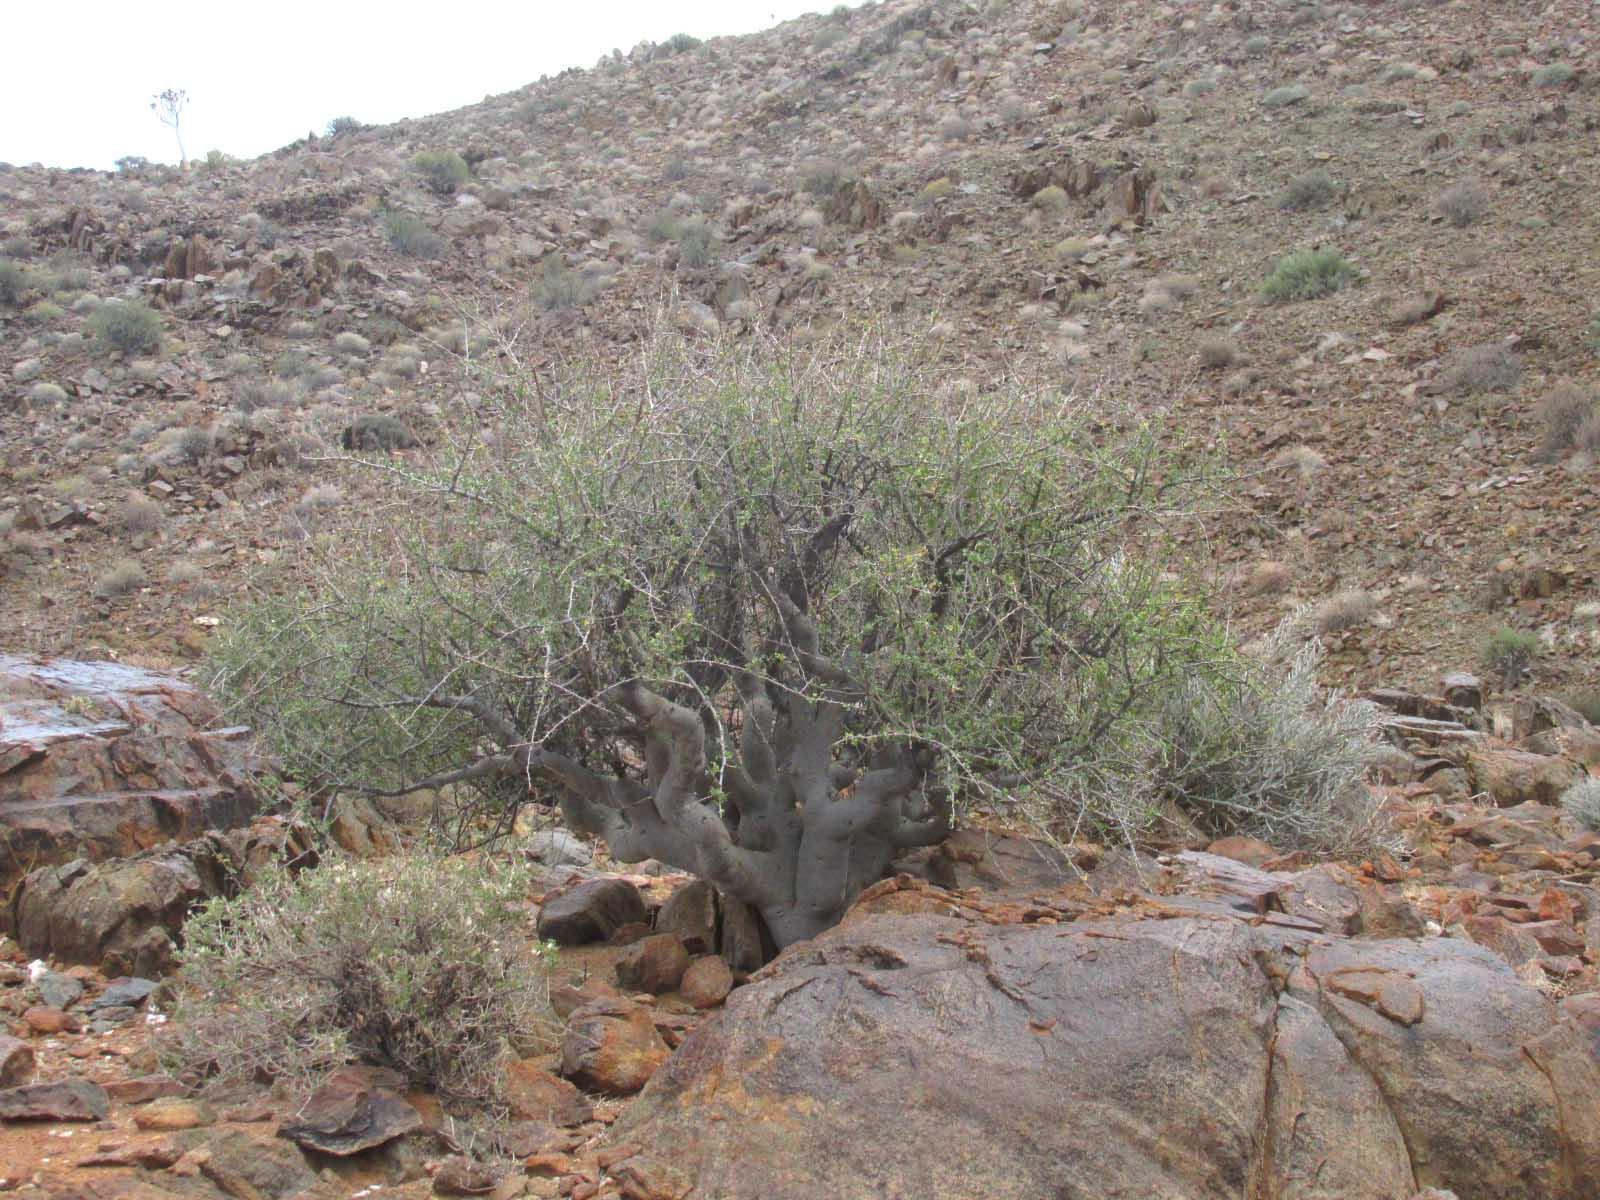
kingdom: Plantae
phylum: Tracheophyta
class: Magnoliopsida
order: Sapindales
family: Burseraceae
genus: Commiphora
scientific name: Commiphora capensis
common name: Namaqua commiphora
